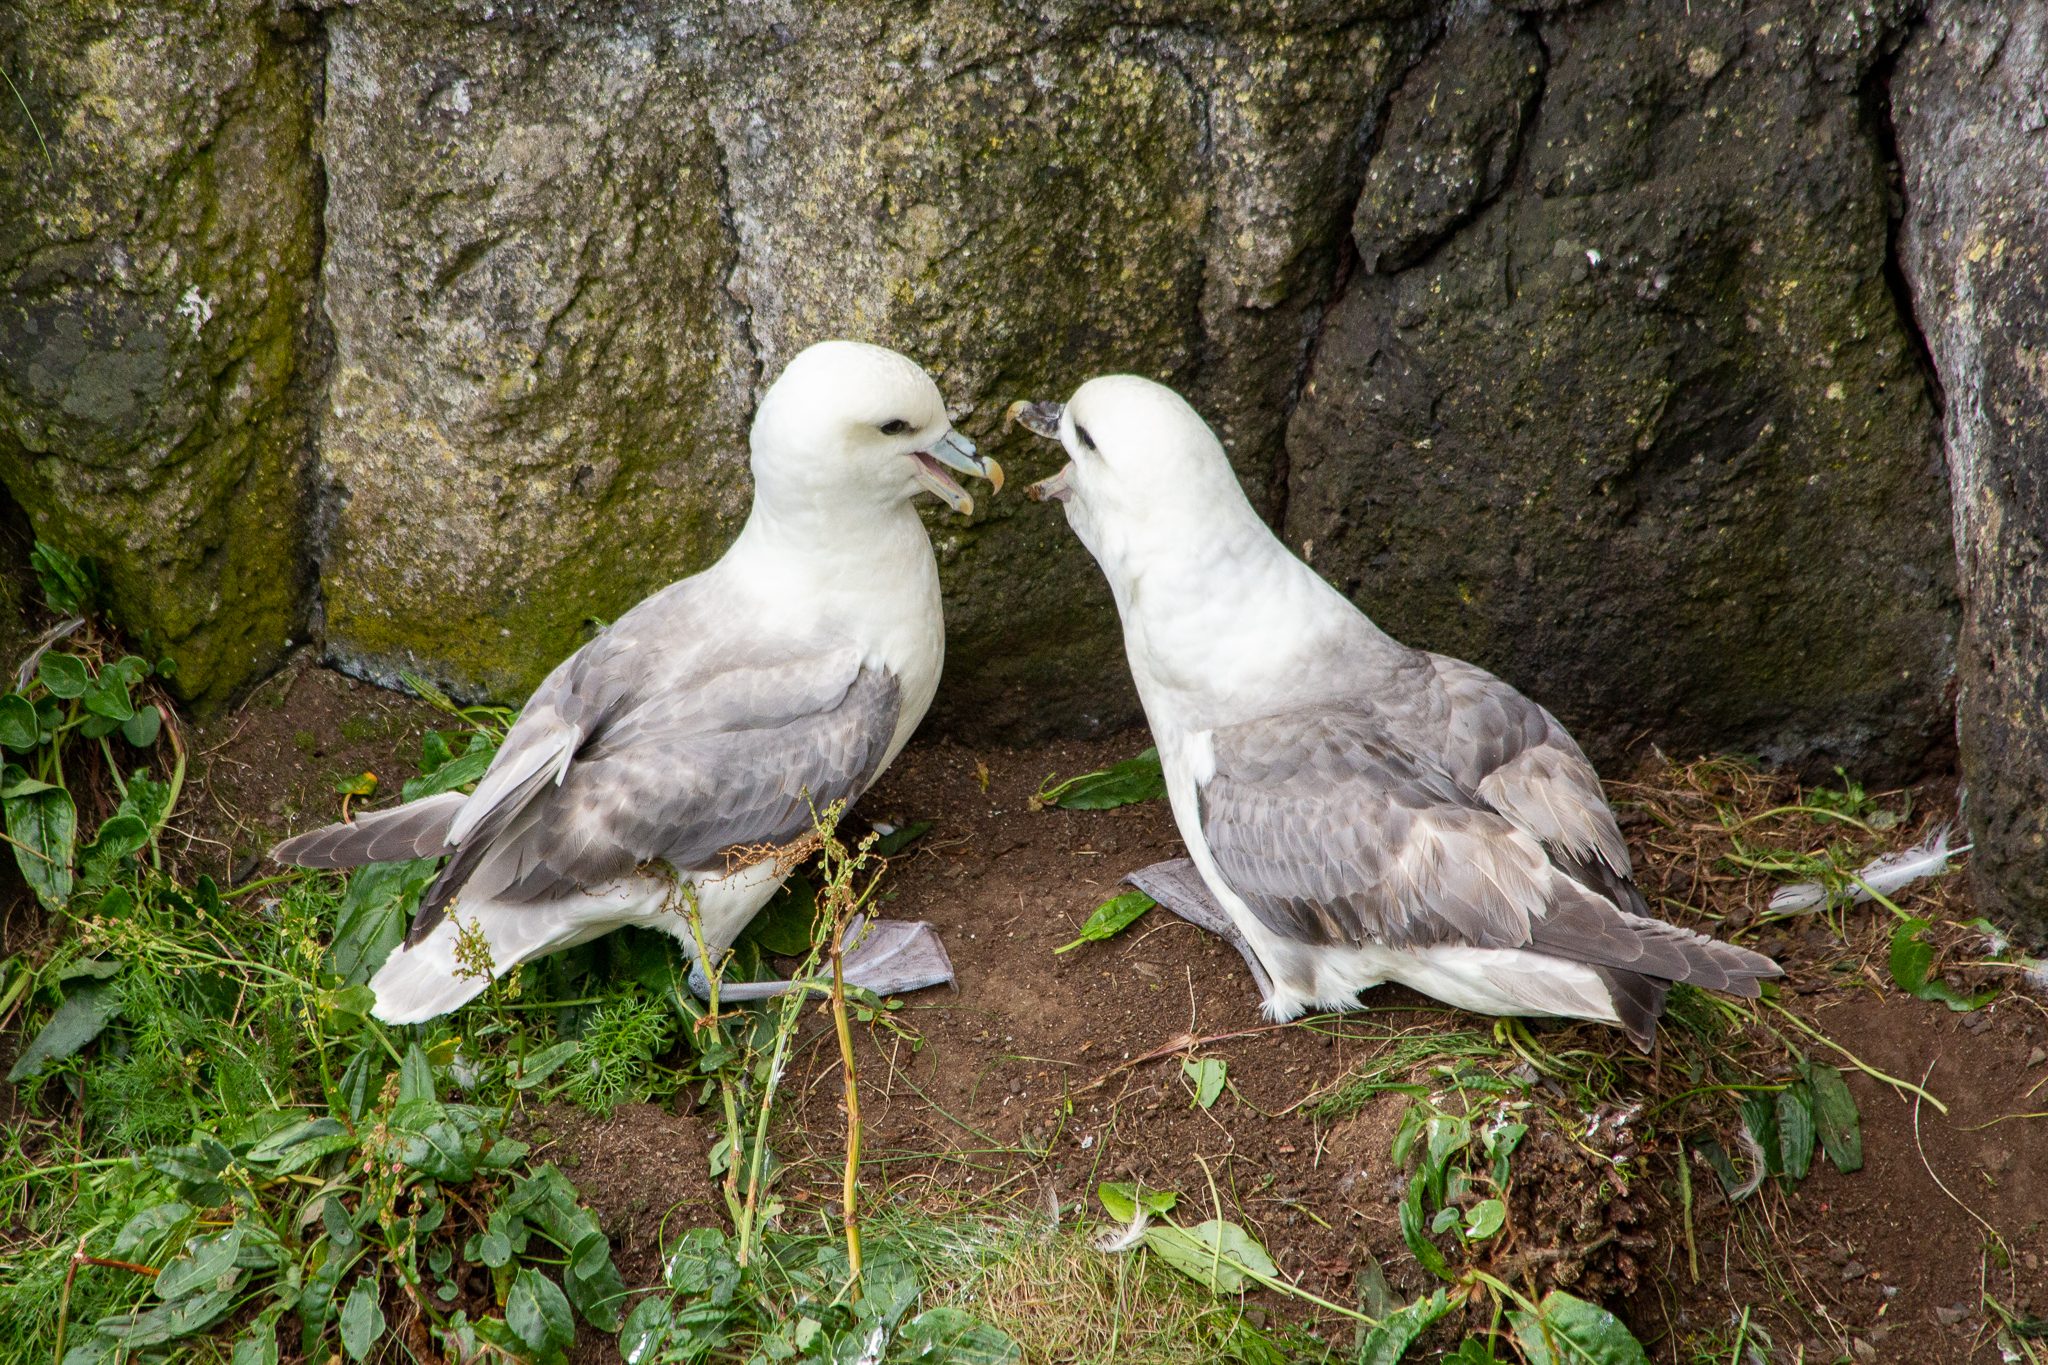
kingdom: Animalia
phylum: Chordata
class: Aves
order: Procellariiformes
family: Procellariidae
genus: Fulmarus
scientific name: Fulmarus glacialis
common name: Northern fulmar
